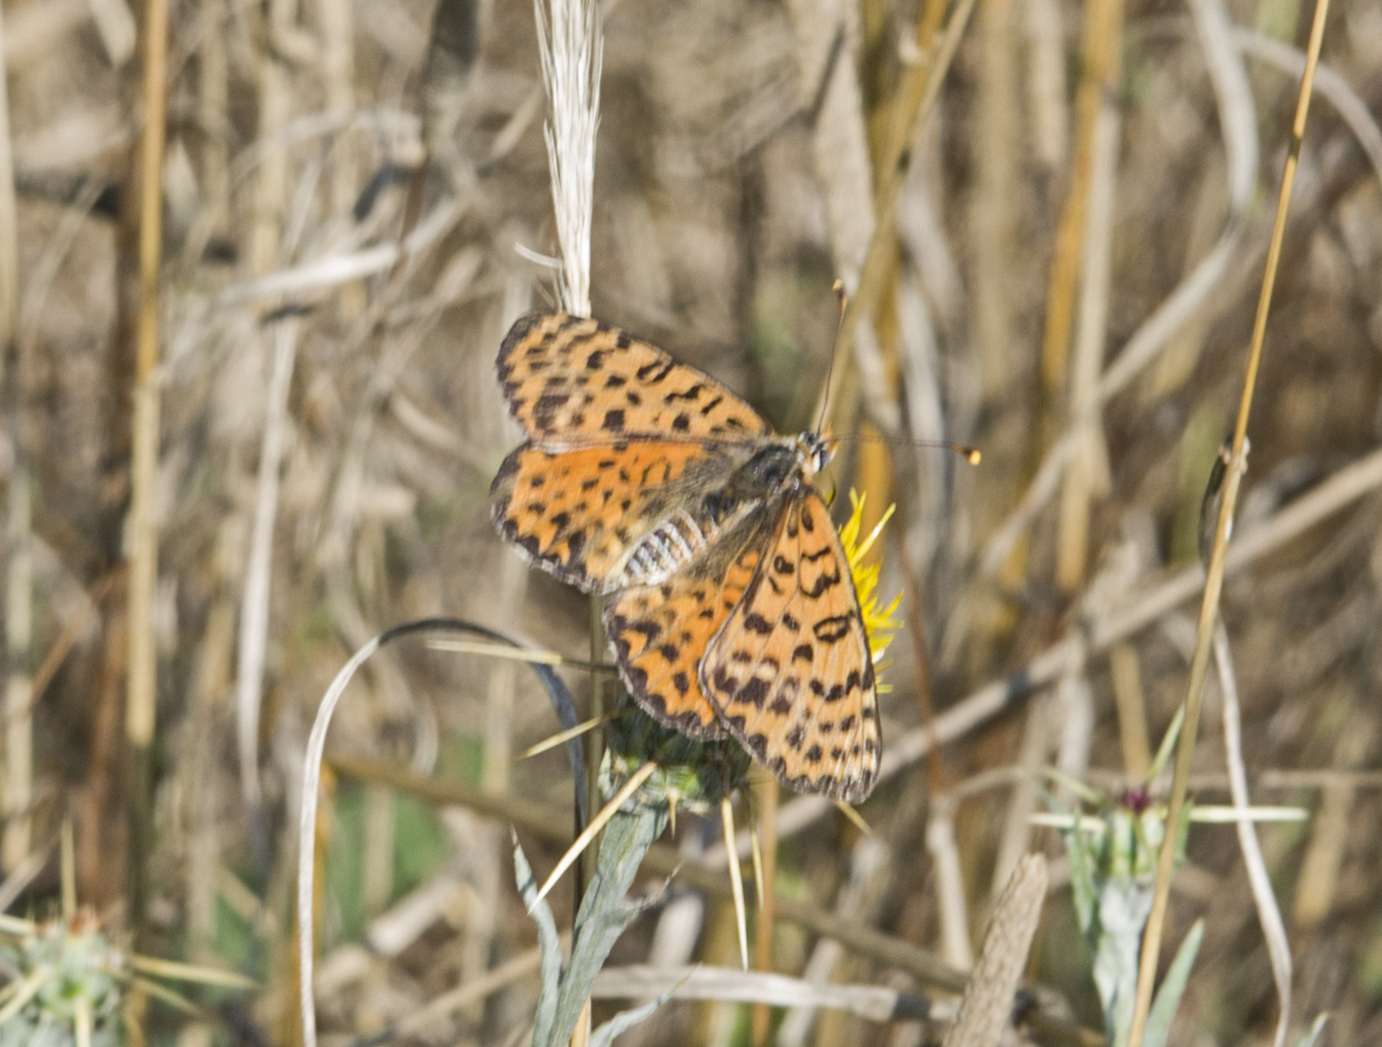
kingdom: Animalia
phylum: Arthropoda
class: Insecta
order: Lepidoptera
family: Nymphalidae
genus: Melitaea
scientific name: Melitaea didyma
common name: Spotted fritillary
